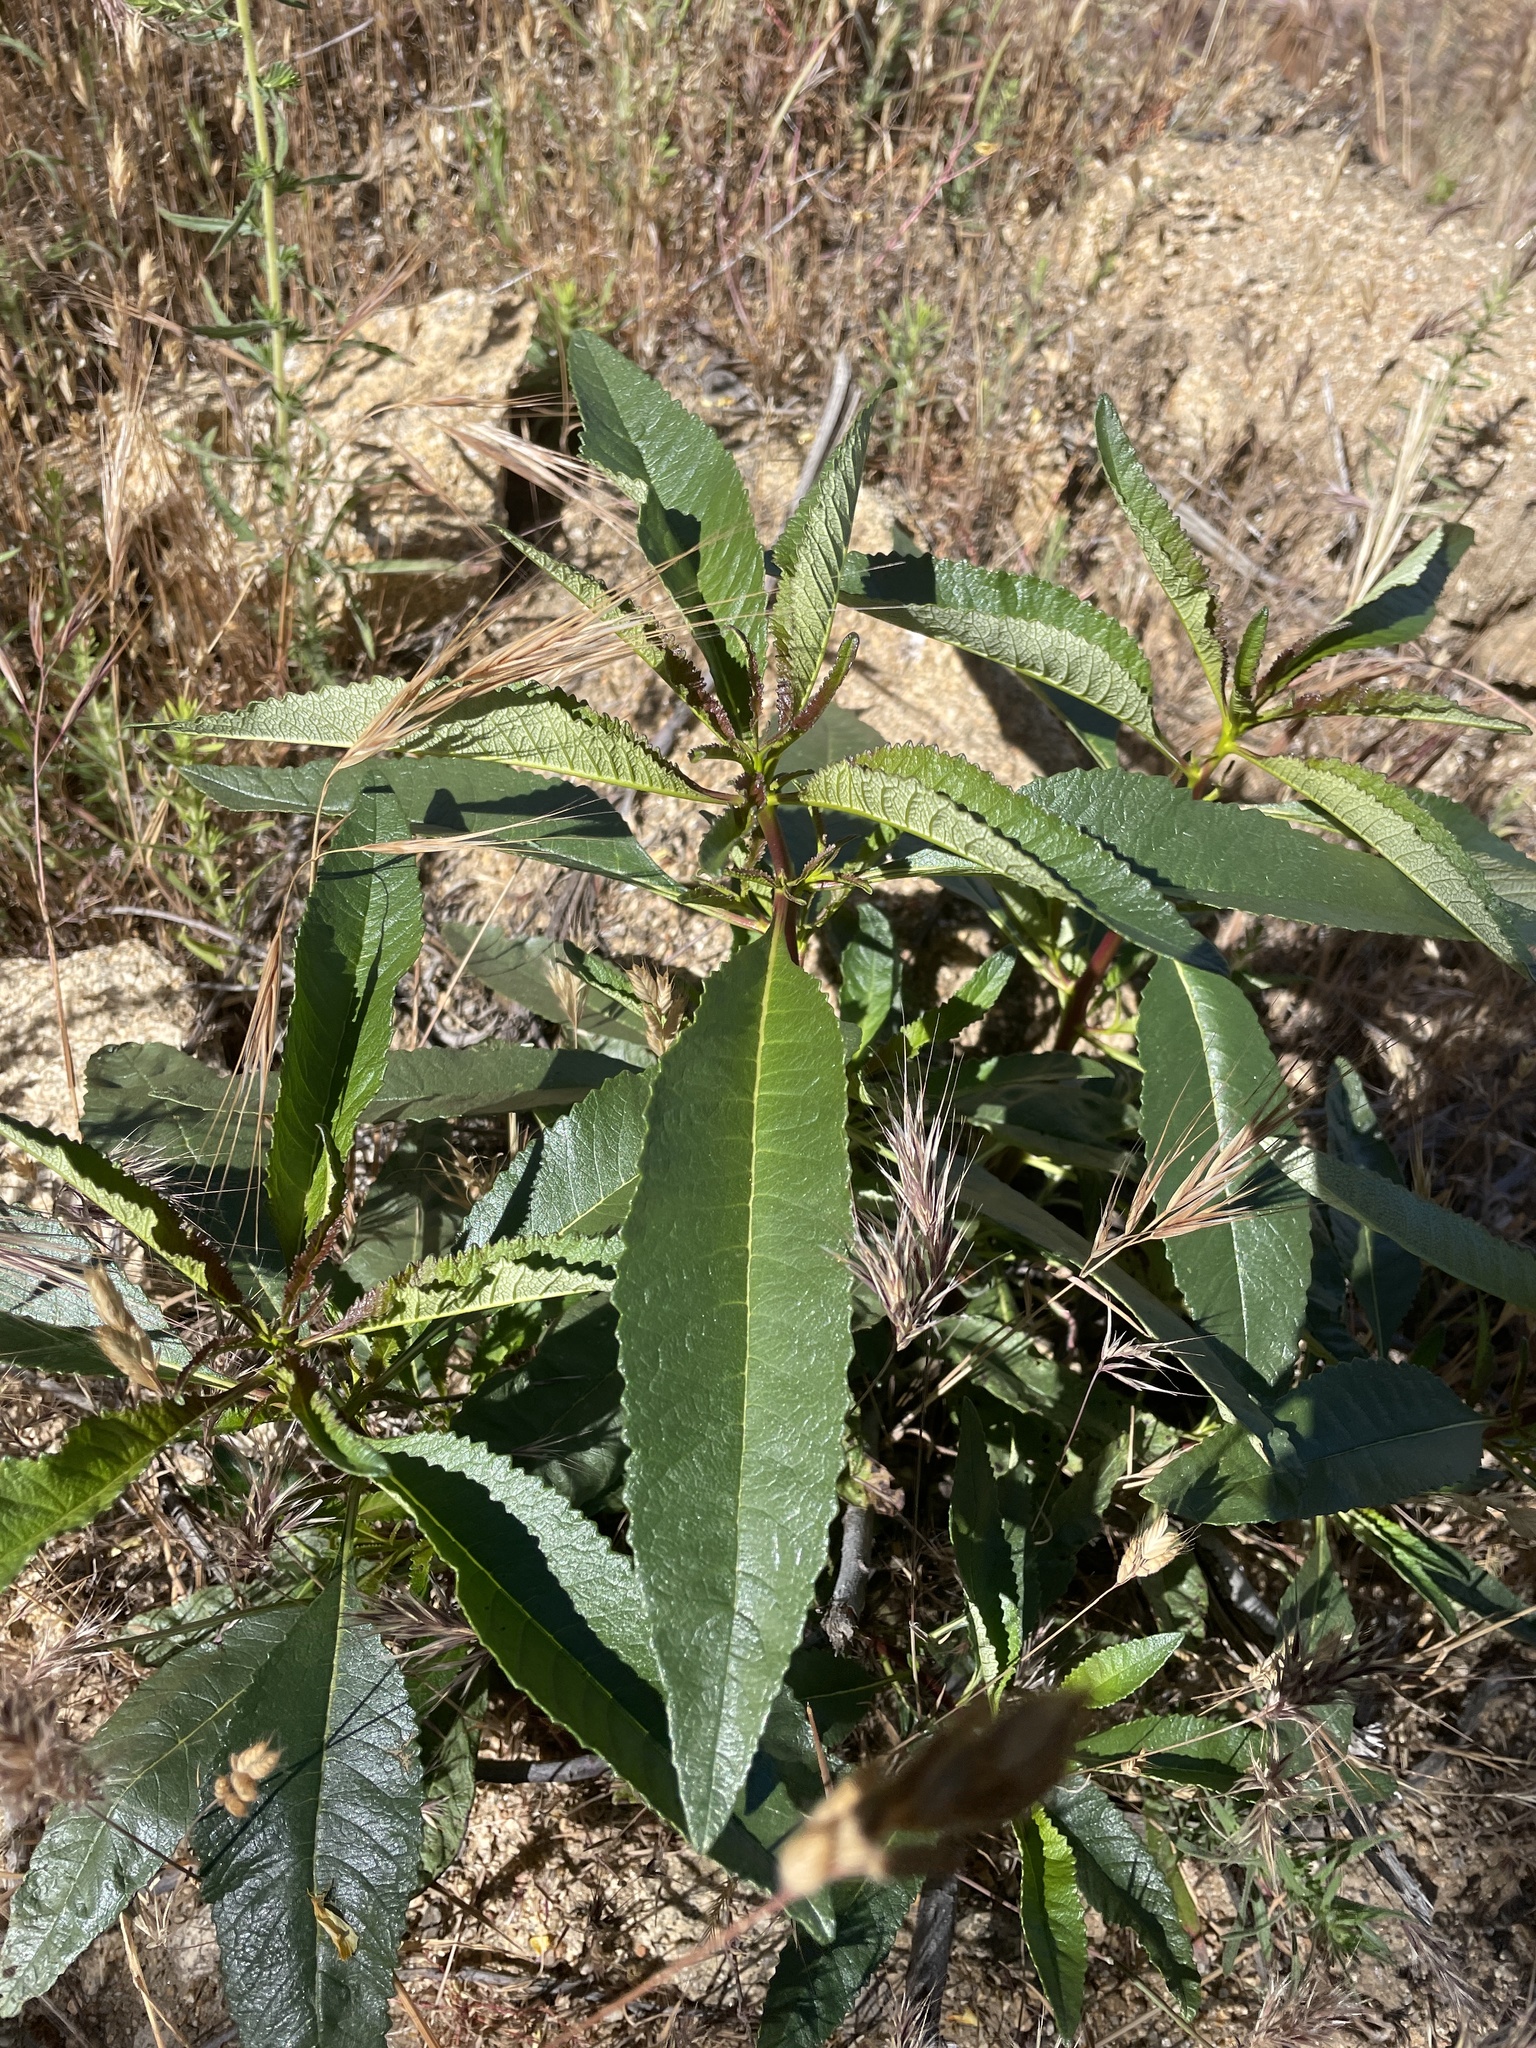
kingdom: Plantae
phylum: Tracheophyta
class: Magnoliopsida
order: Boraginales
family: Namaceae
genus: Eriodictyon
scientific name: Eriodictyon californicum
